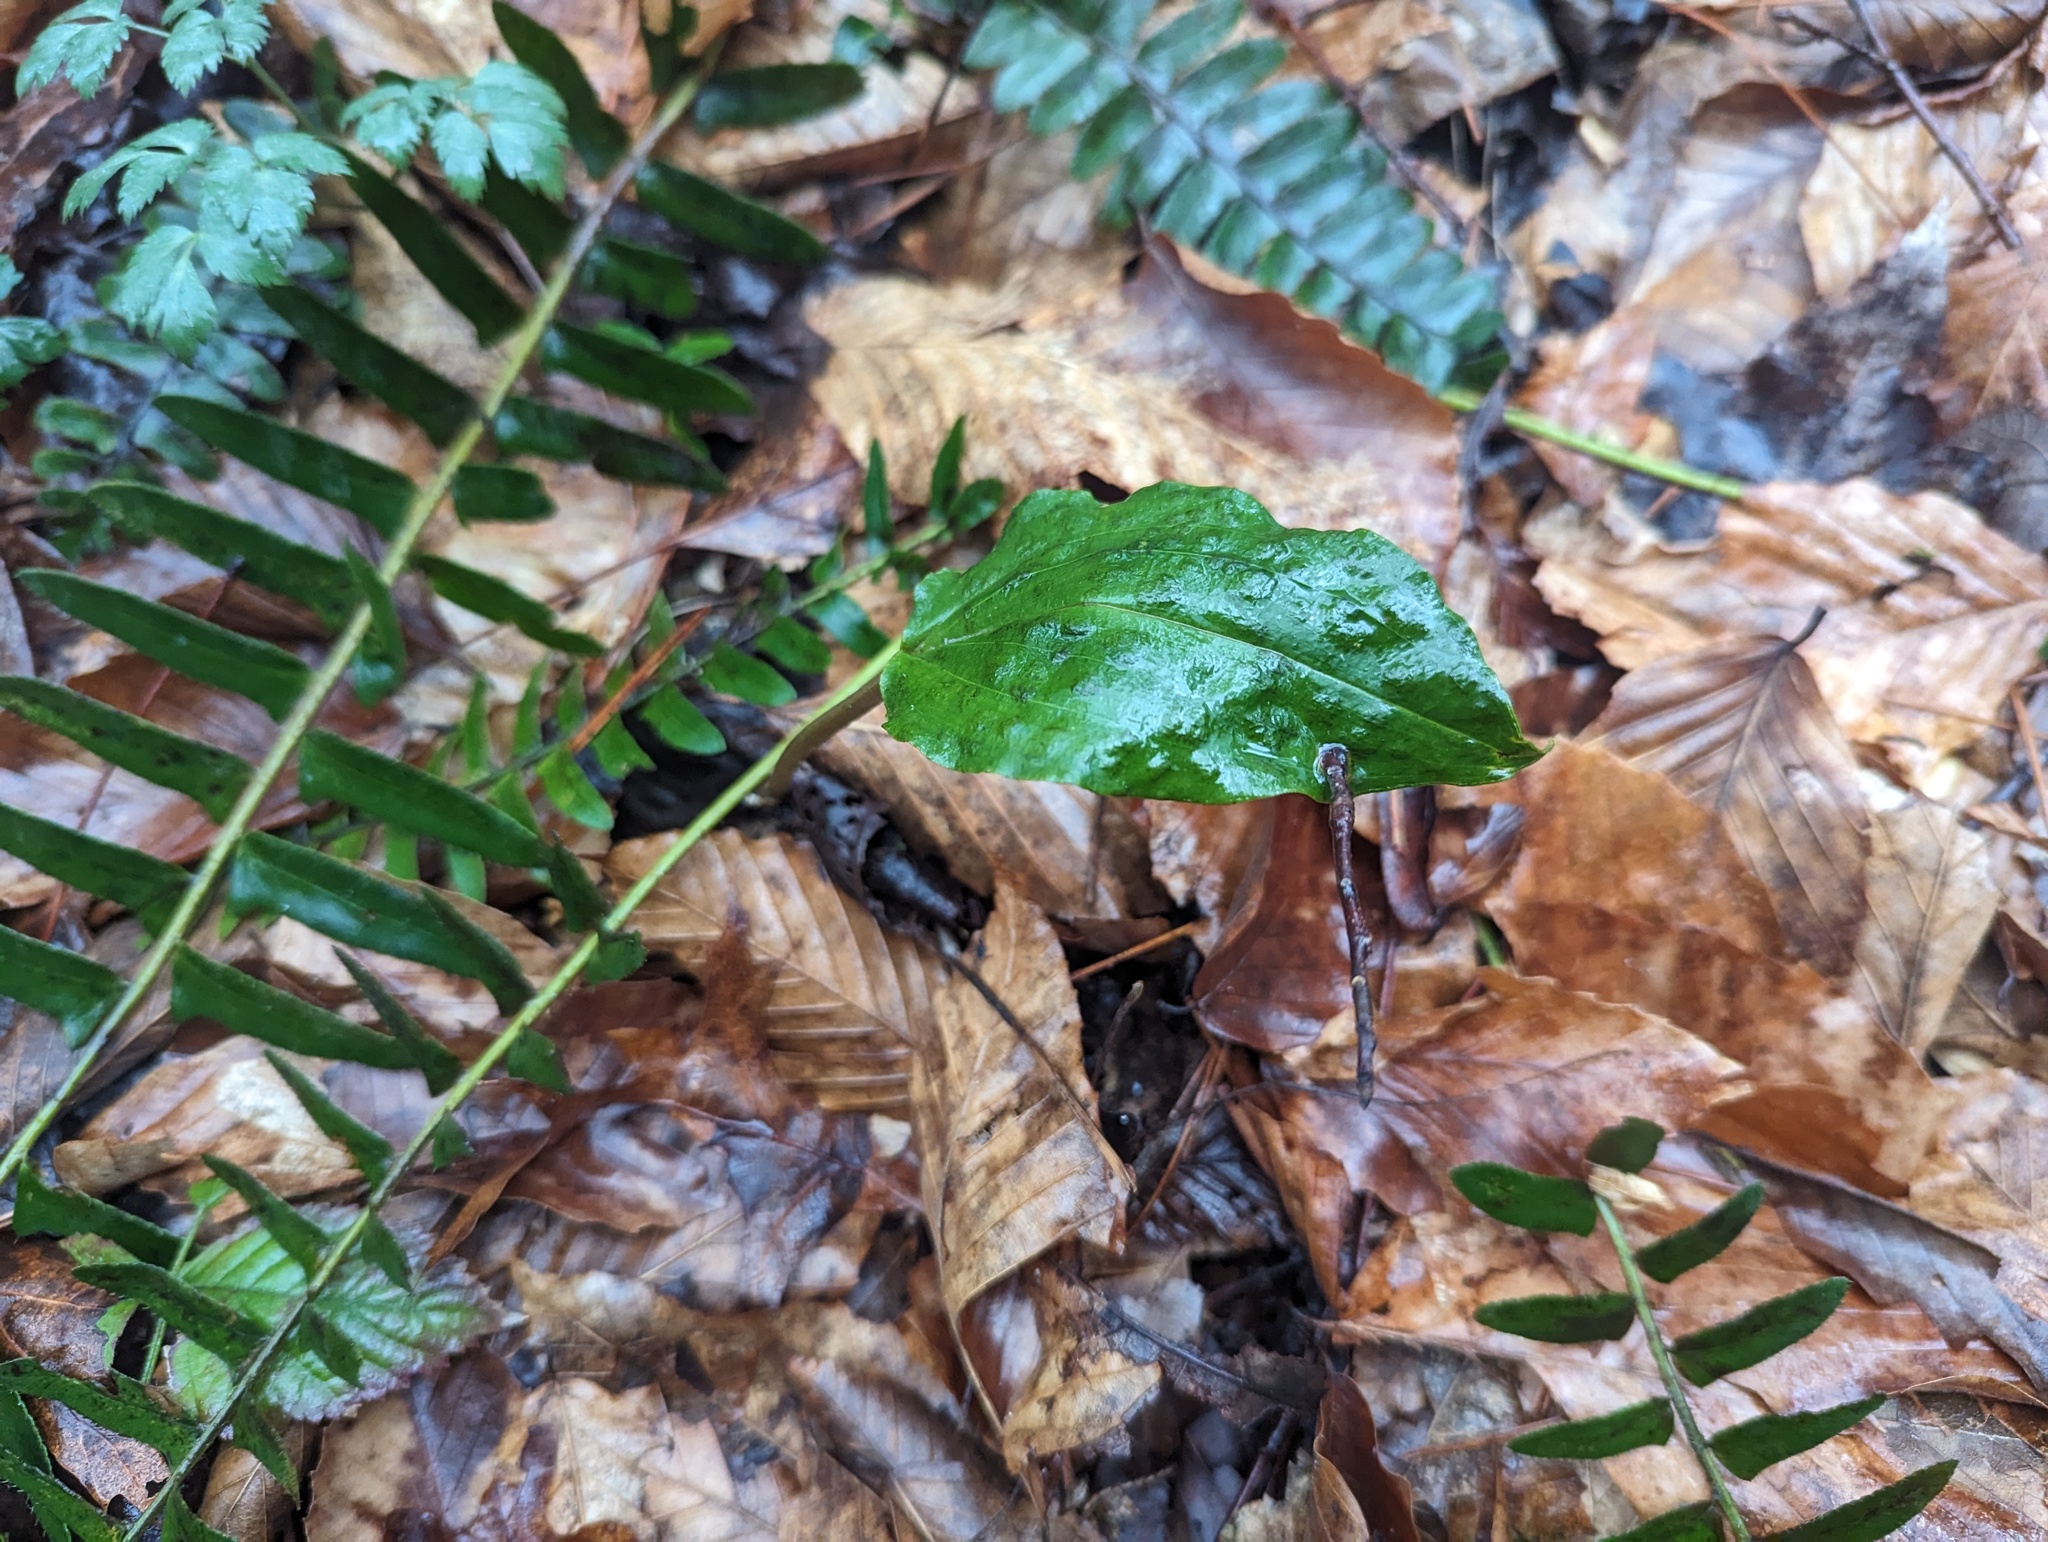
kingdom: Plantae
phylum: Tracheophyta
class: Liliopsida
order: Asparagales
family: Orchidaceae
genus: Tipularia
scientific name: Tipularia discolor
